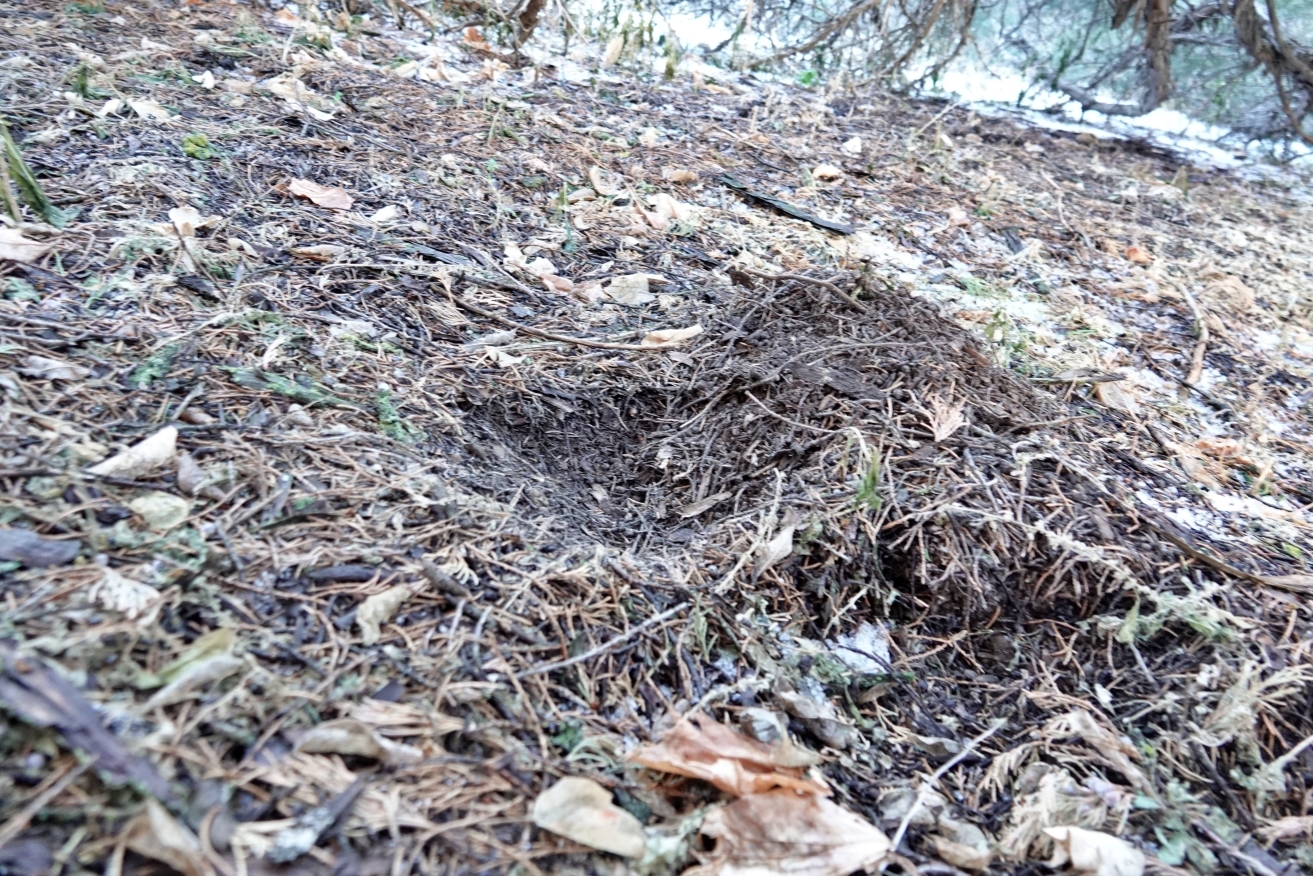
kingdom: Animalia
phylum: Chordata
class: Mammalia
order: Carnivora
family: Felidae
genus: Puma
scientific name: Puma concolor
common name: Puma
